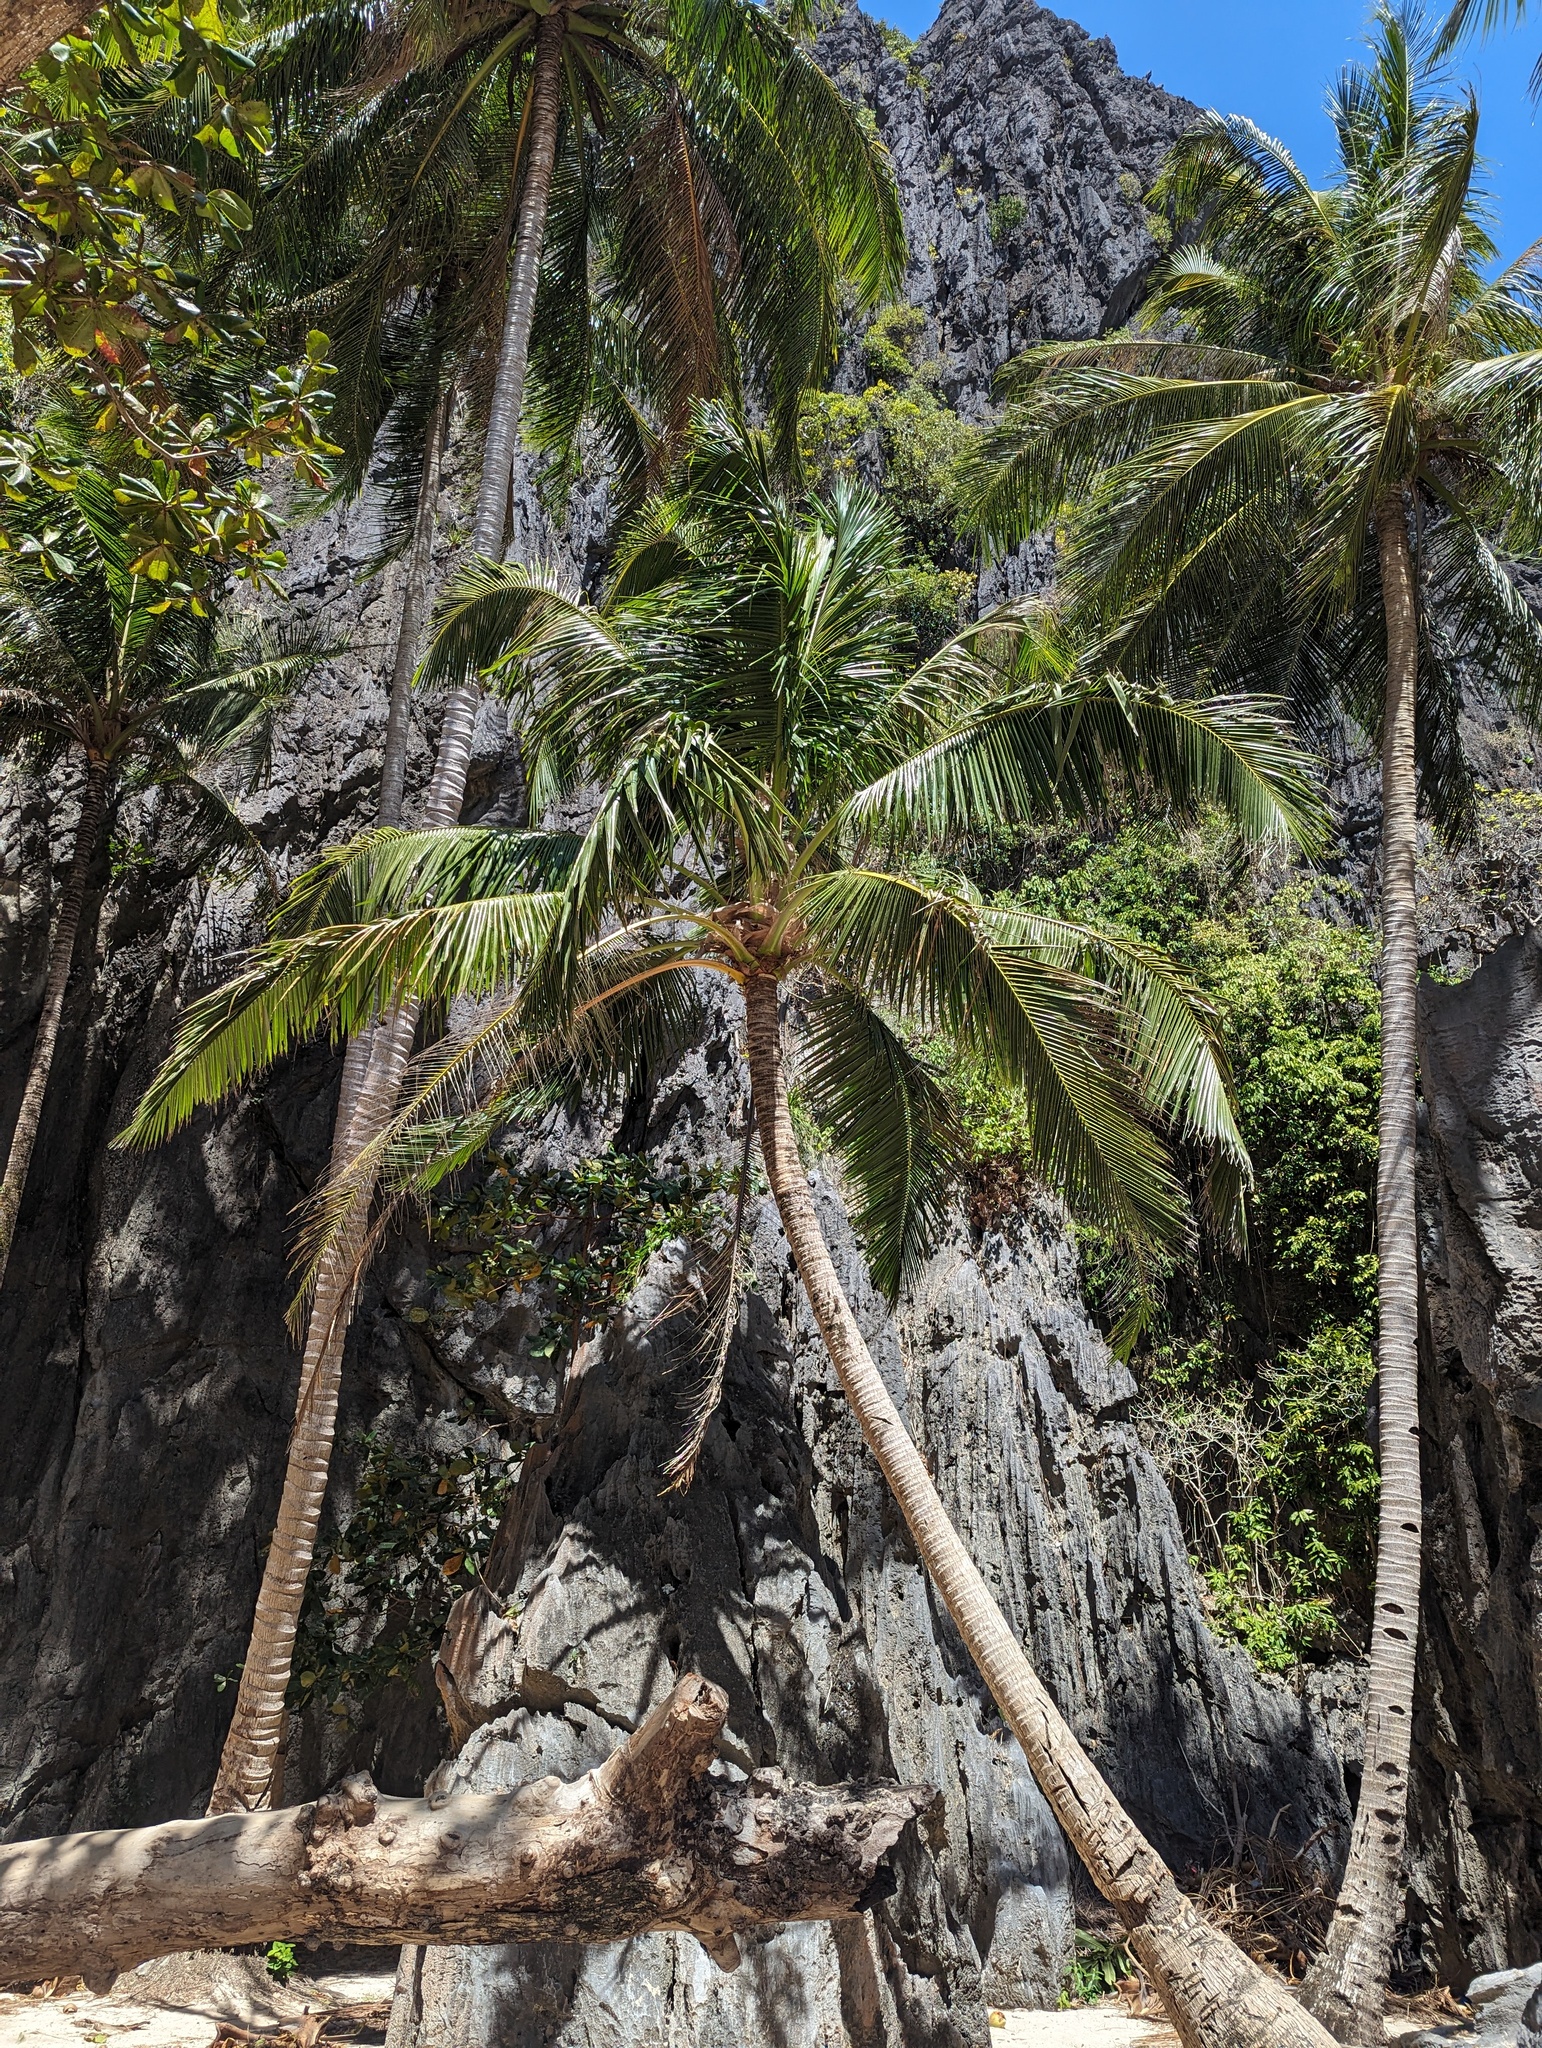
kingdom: Plantae
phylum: Tracheophyta
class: Liliopsida
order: Arecales
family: Arecaceae
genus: Cocos
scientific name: Cocos nucifera
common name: Coconut palm
